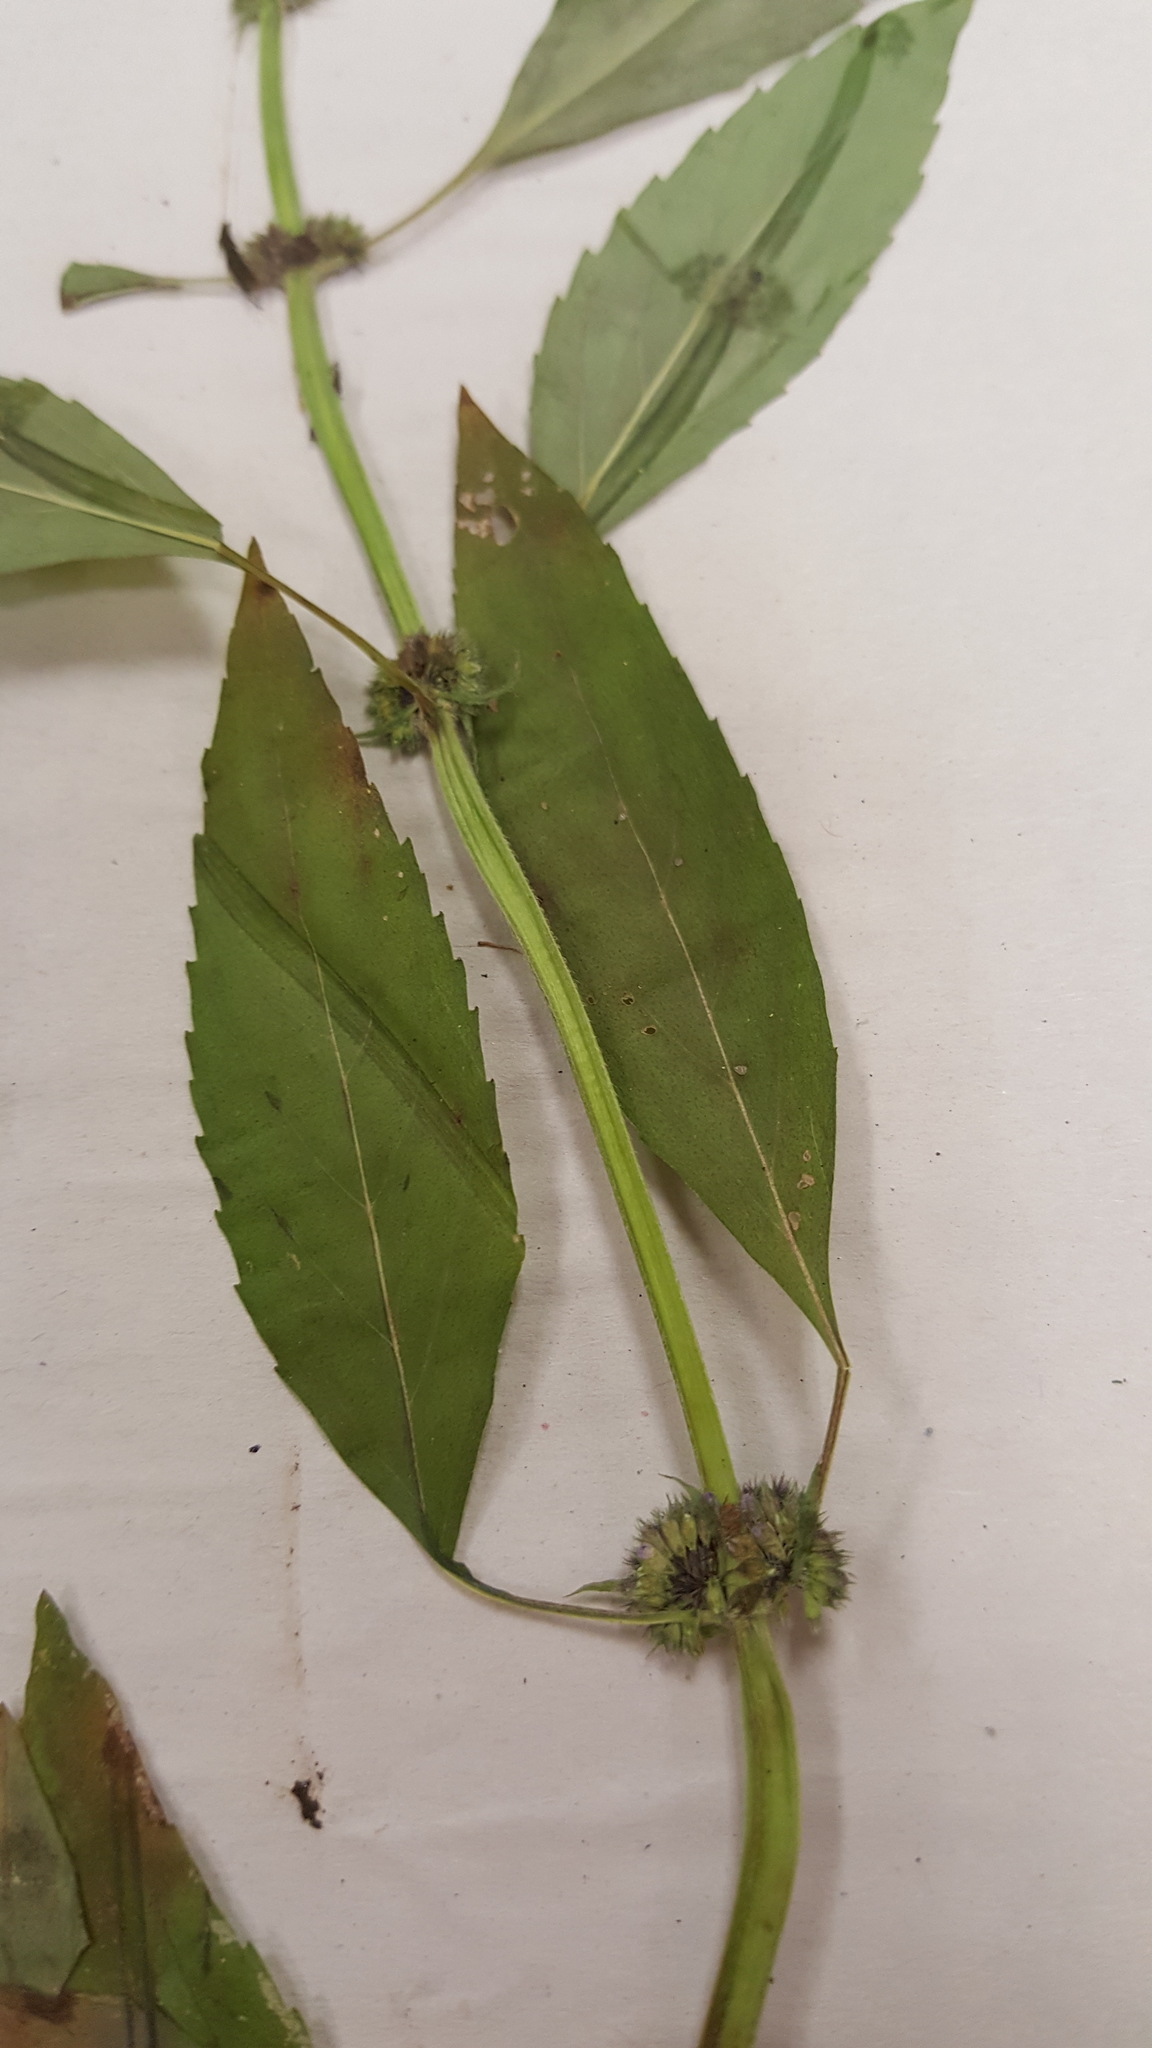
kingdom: Plantae
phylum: Tracheophyta
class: Magnoliopsida
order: Lamiales
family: Lamiaceae
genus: Mentha
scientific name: Mentha arvensis
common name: Corn mint
